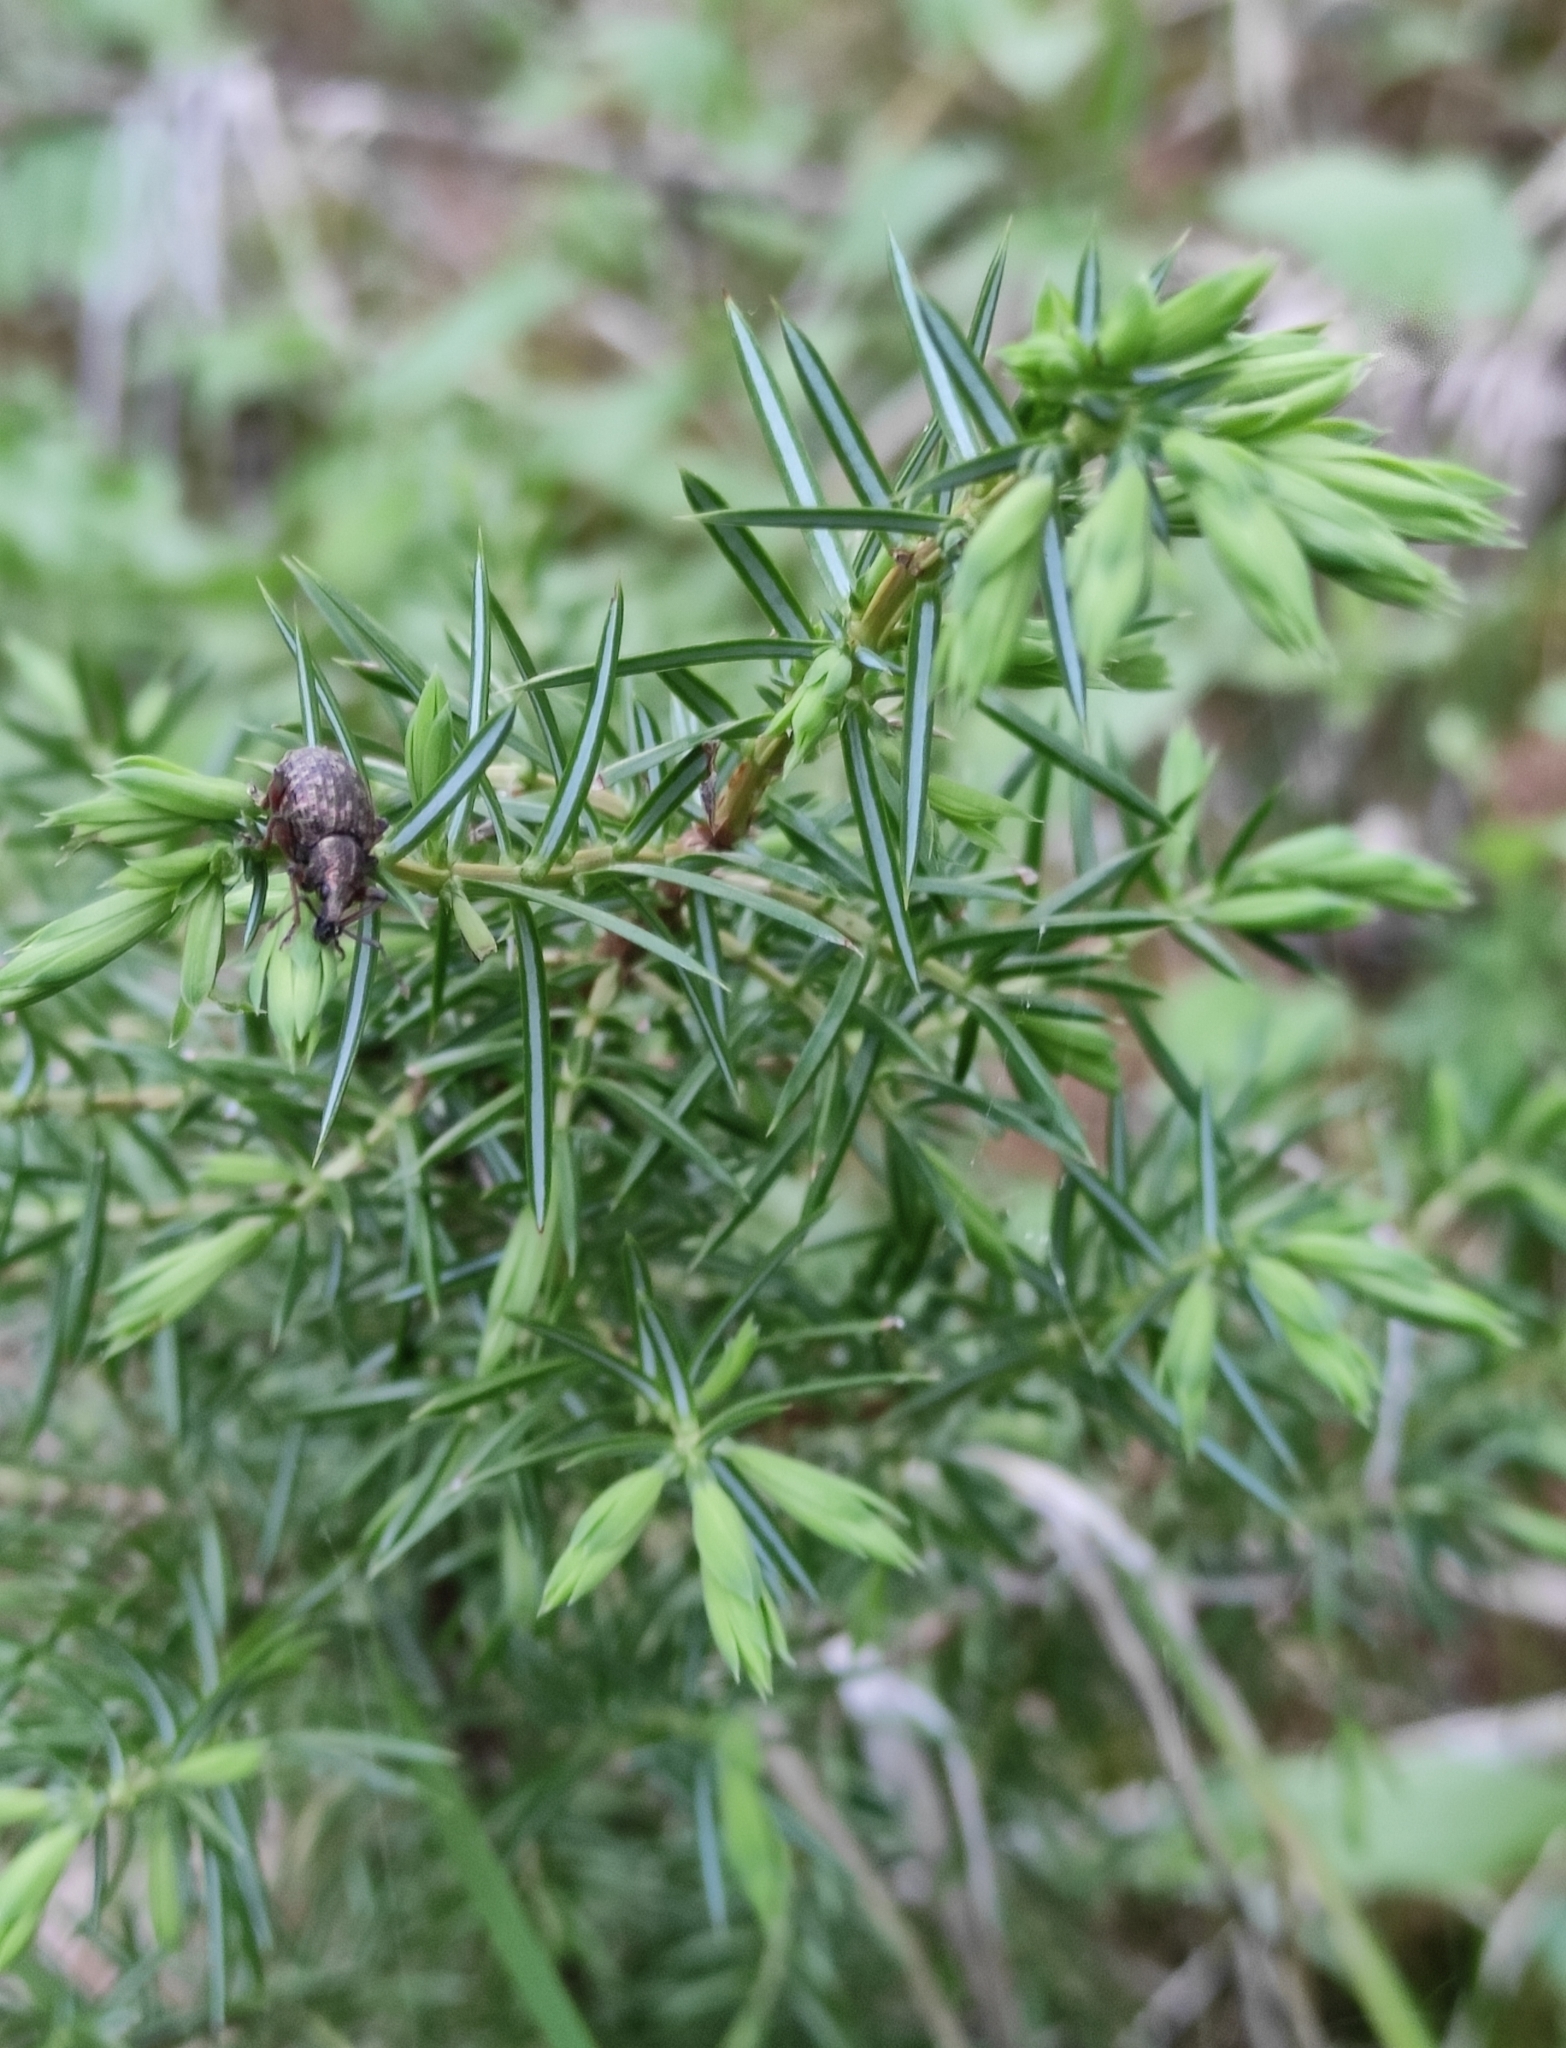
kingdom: Plantae
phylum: Tracheophyta
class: Pinopsida
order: Pinales
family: Cupressaceae
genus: Juniperus
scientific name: Juniperus communis
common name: Common juniper
